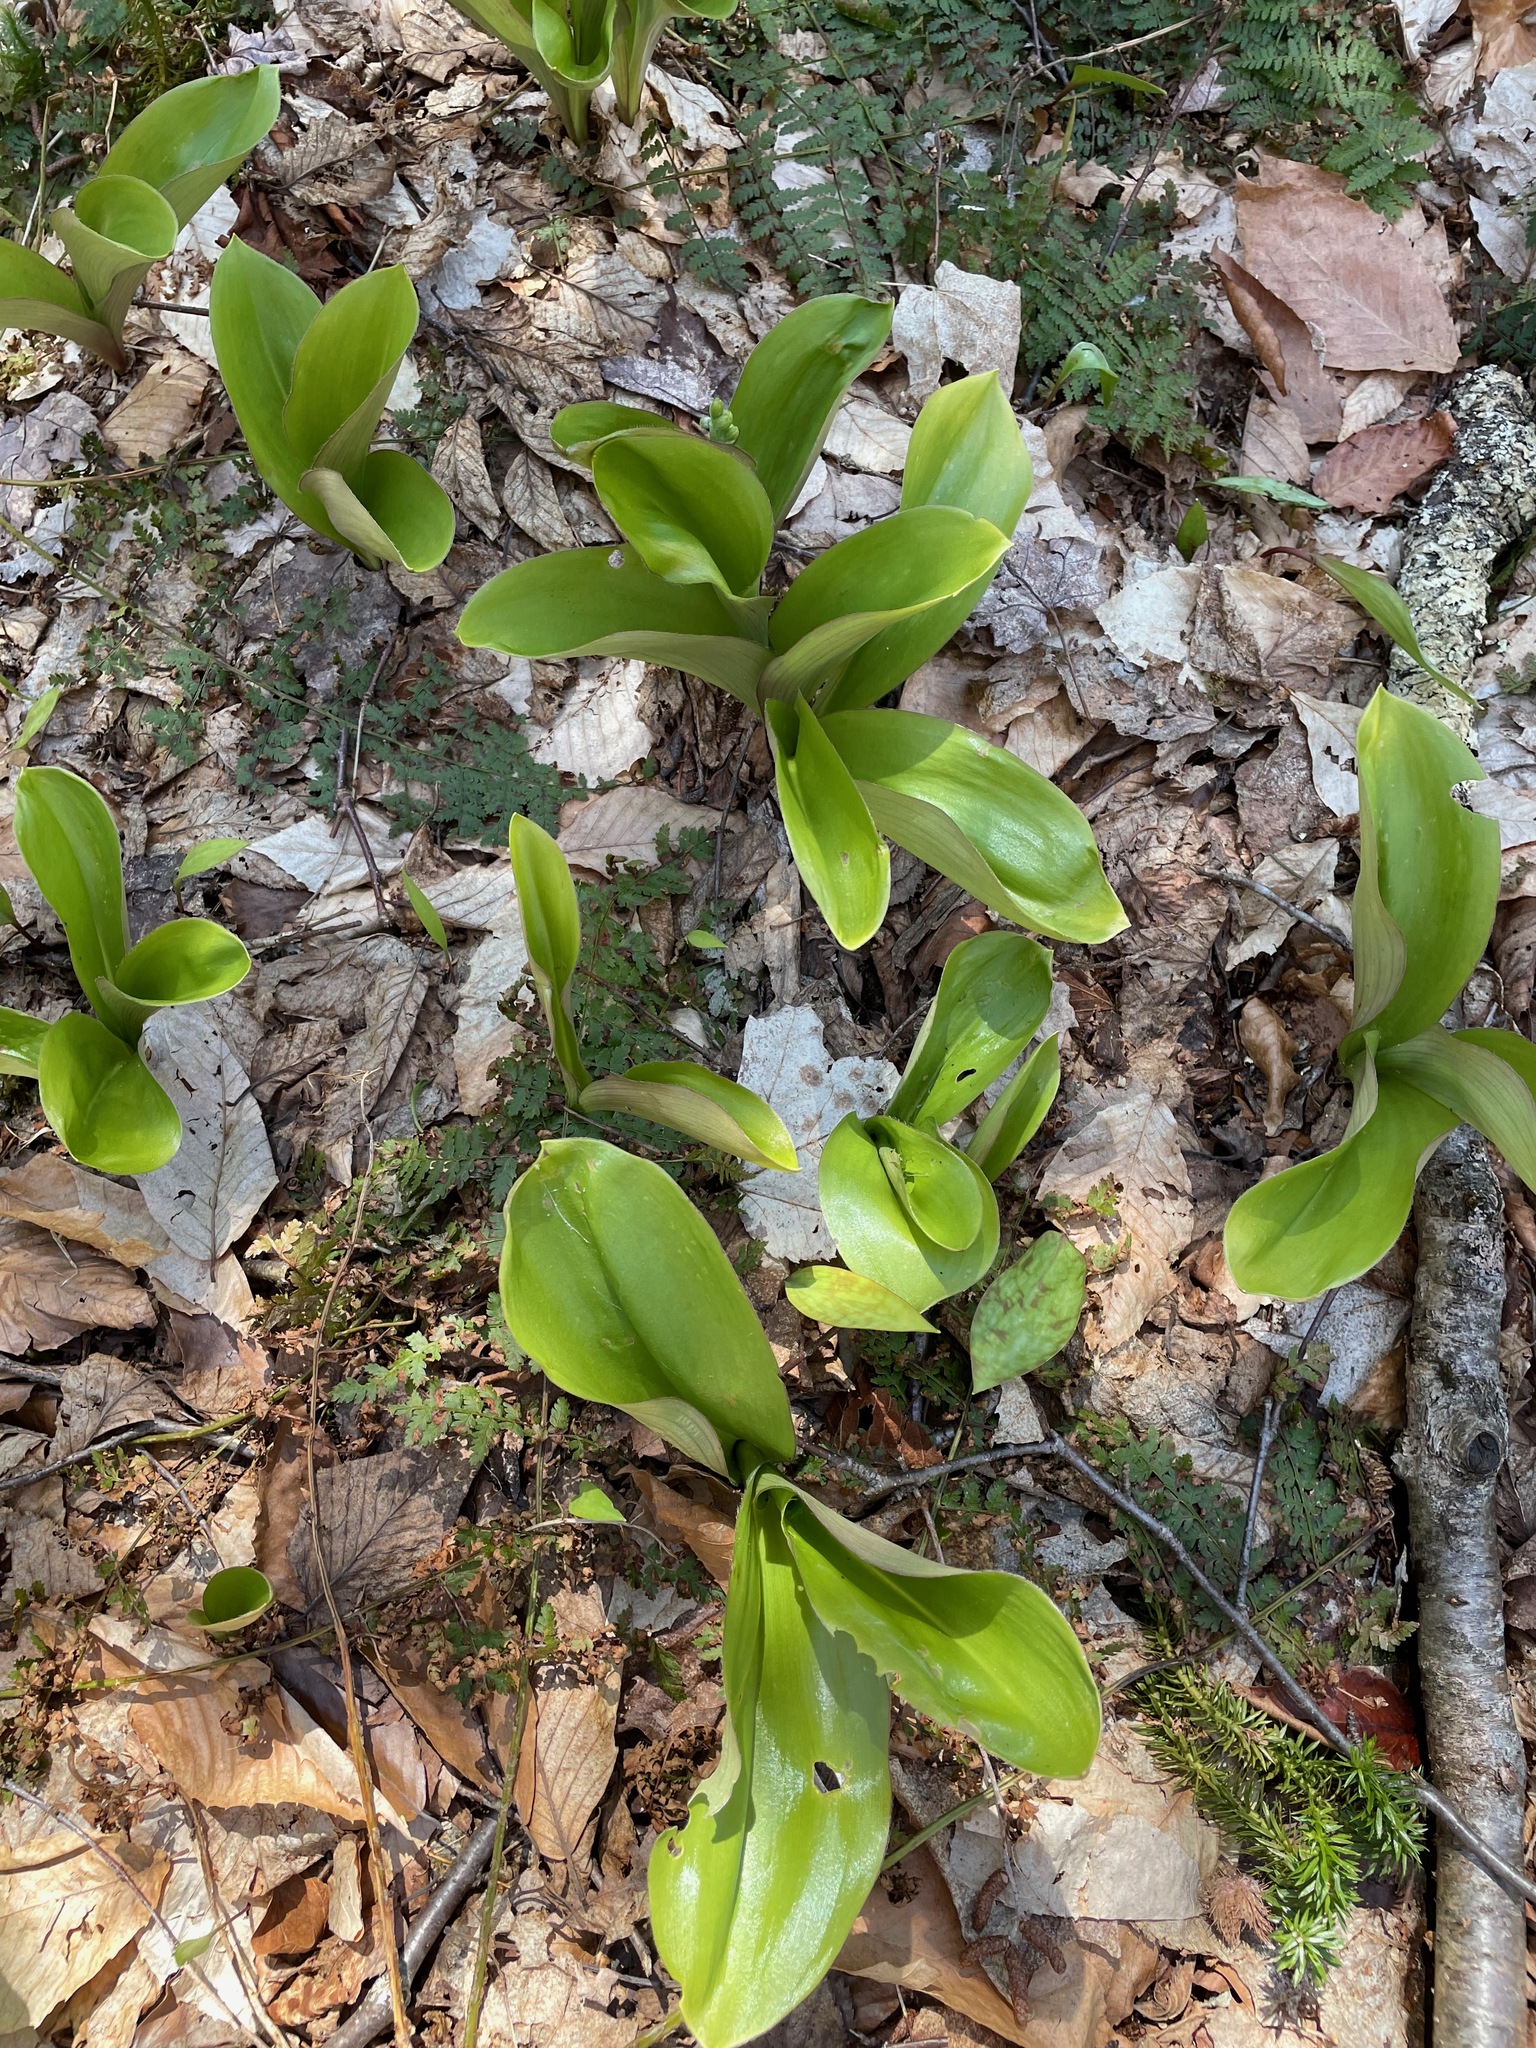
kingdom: Plantae
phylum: Tracheophyta
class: Liliopsida
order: Liliales
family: Liliaceae
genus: Clintonia
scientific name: Clintonia borealis
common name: Yellow clintonia
